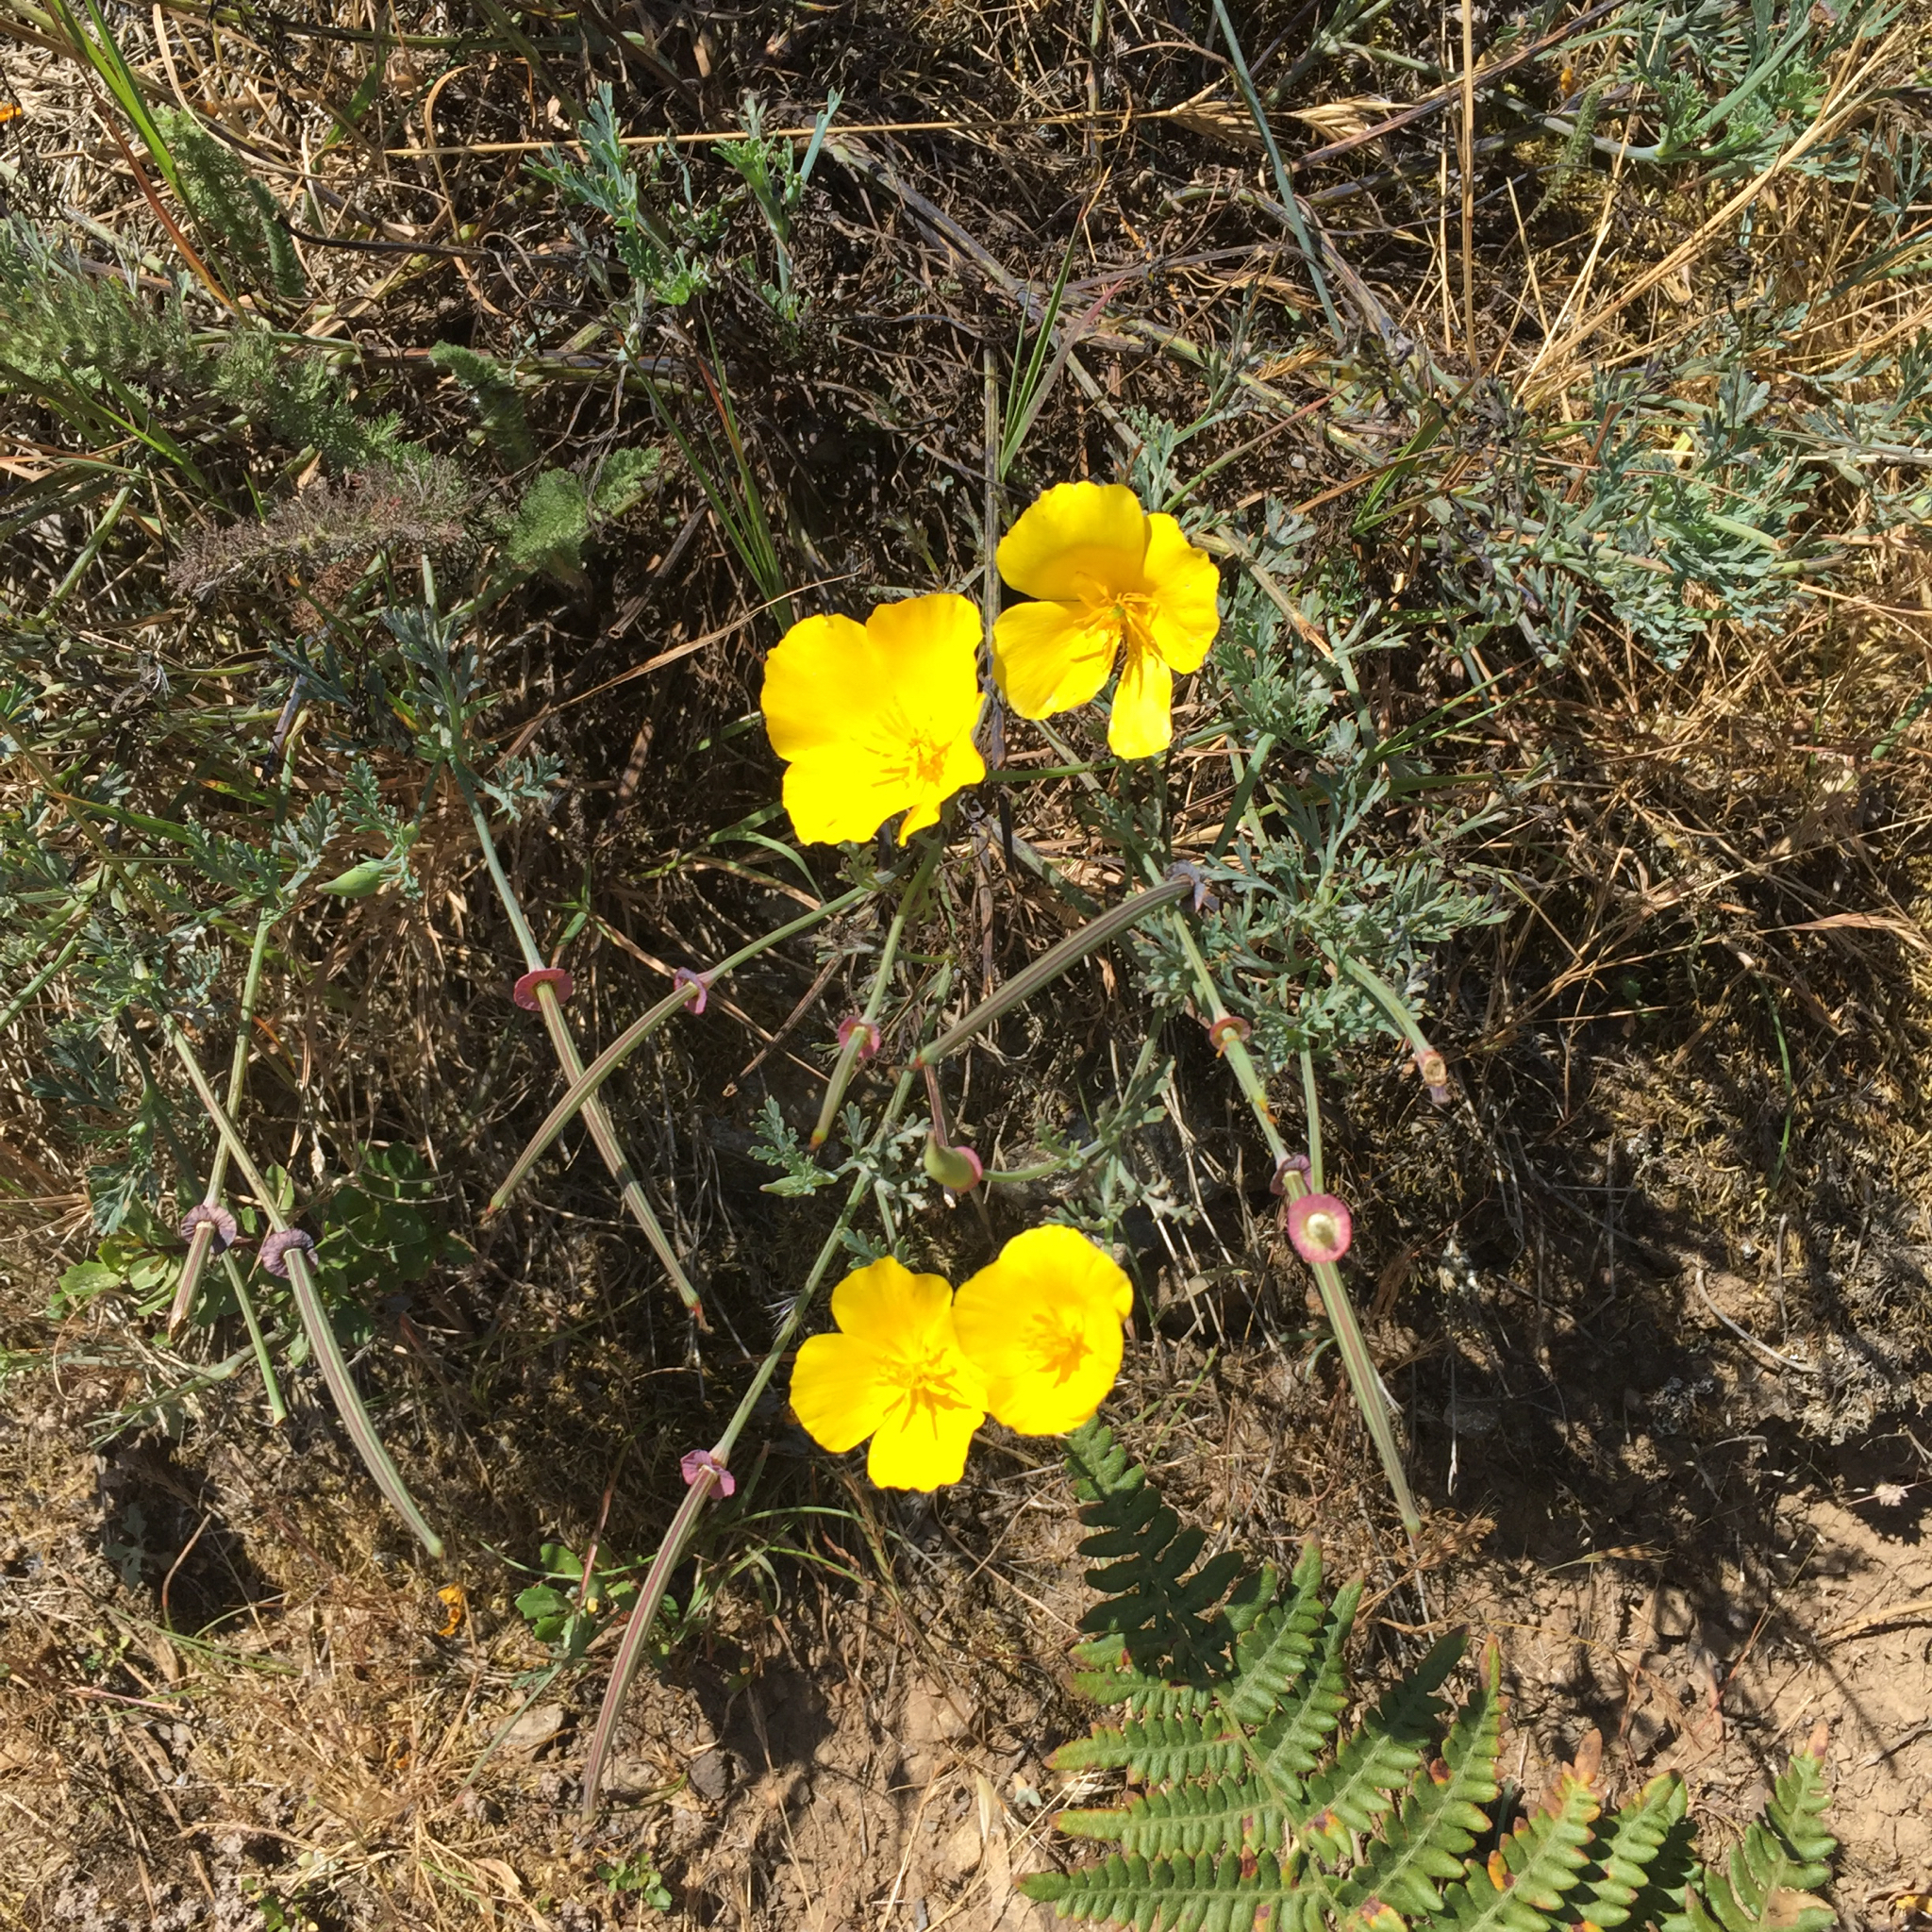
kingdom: Plantae
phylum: Tracheophyta
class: Magnoliopsida
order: Ranunculales
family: Papaveraceae
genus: Eschscholzia
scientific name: Eschscholzia californica
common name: California poppy
